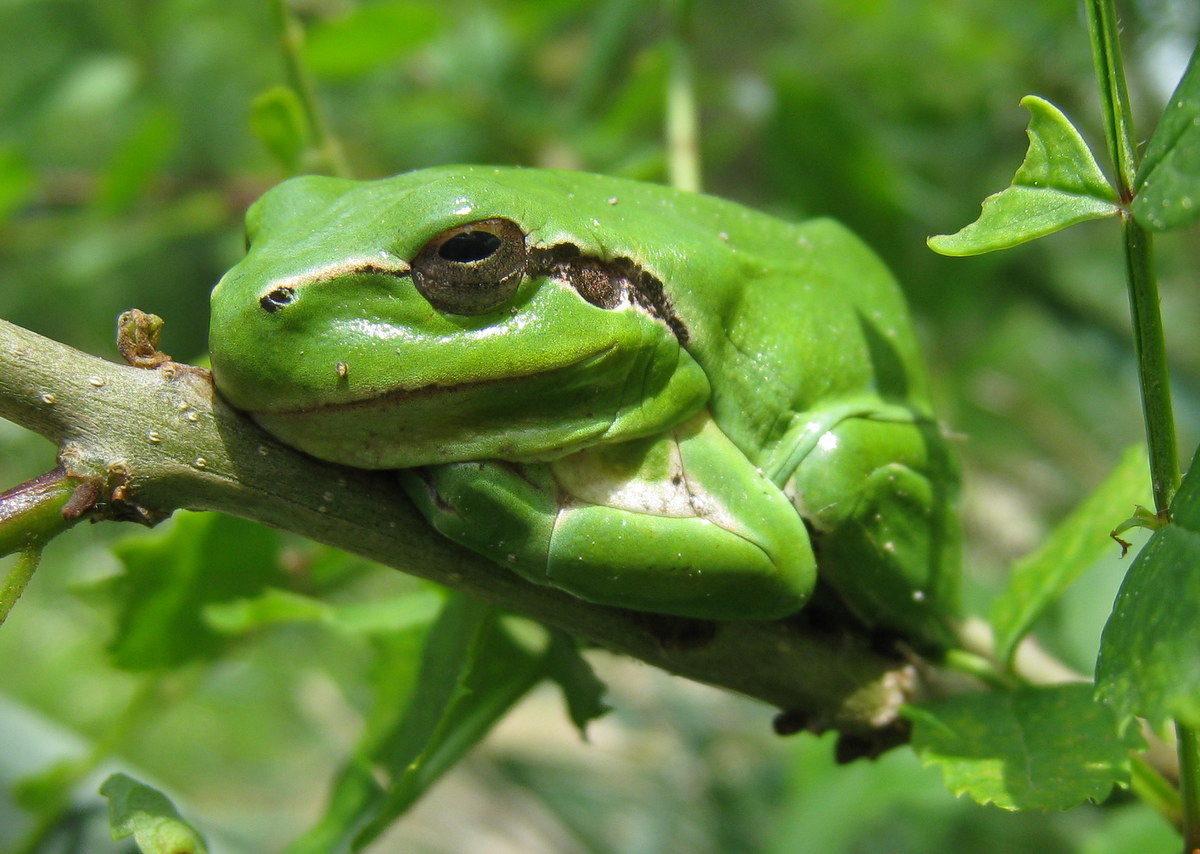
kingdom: Animalia
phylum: Chordata
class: Amphibia
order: Anura
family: Hylidae
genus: Hyla
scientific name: Hyla meridionalis
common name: Stripeless tree frog
